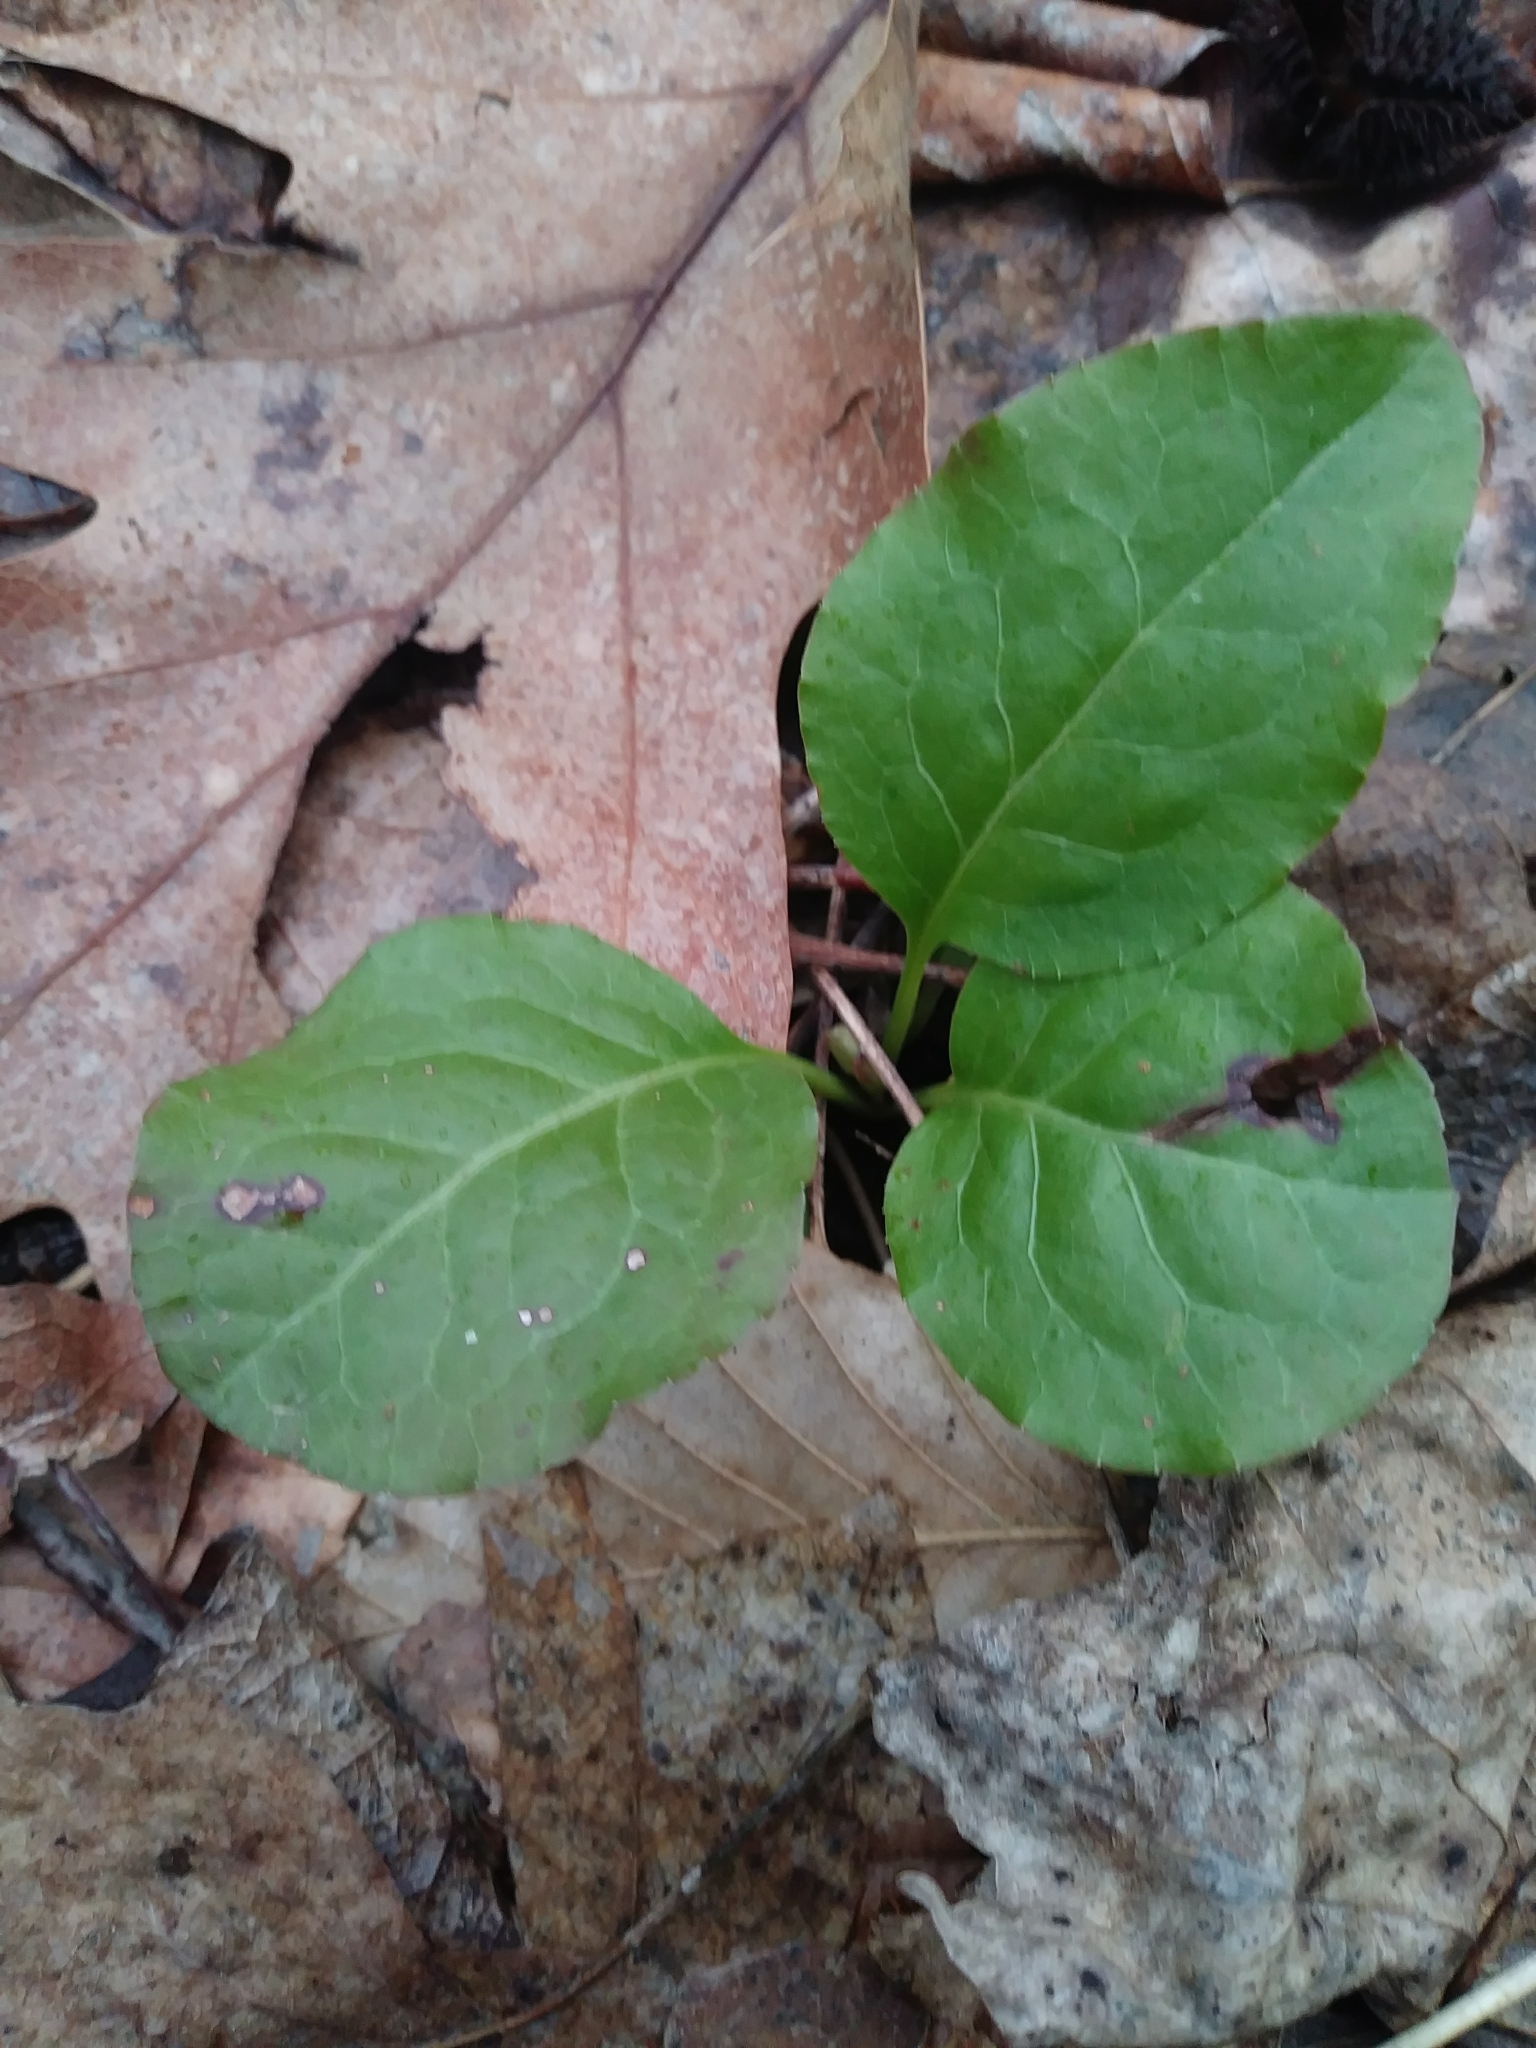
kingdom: Plantae
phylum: Tracheophyta
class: Magnoliopsida
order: Ericales
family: Ericaceae
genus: Pyrola
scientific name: Pyrola elliptica
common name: Shinleaf
